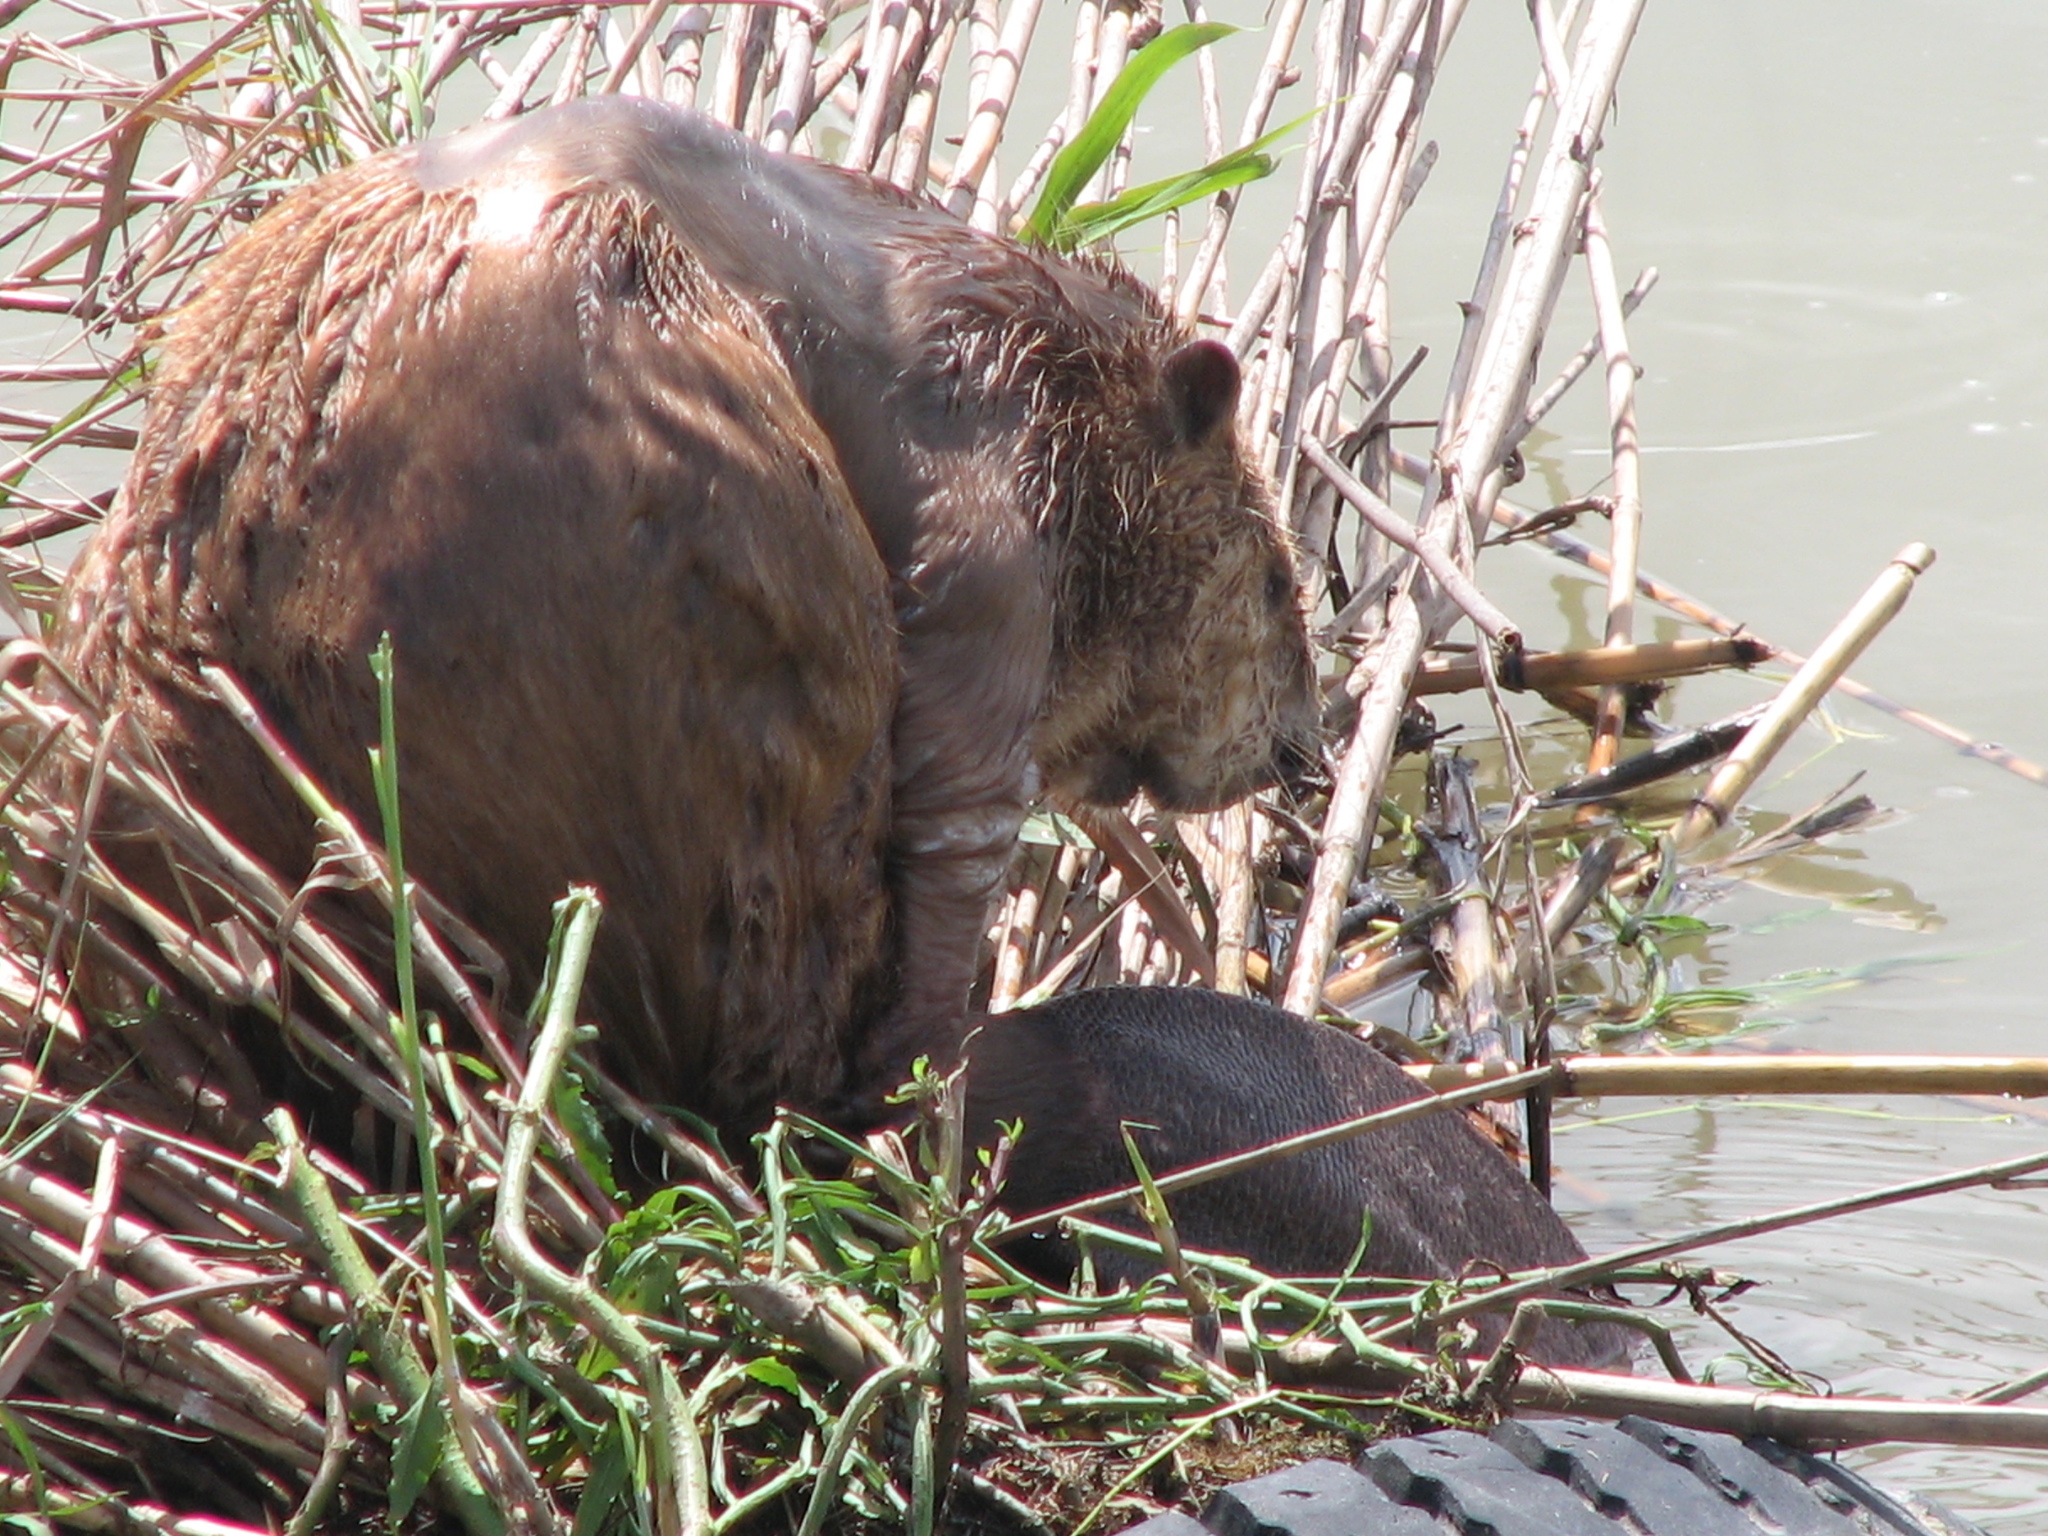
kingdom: Animalia
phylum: Chordata
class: Mammalia
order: Rodentia
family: Castoridae
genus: Castor
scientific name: Castor canadensis
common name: American beaver
